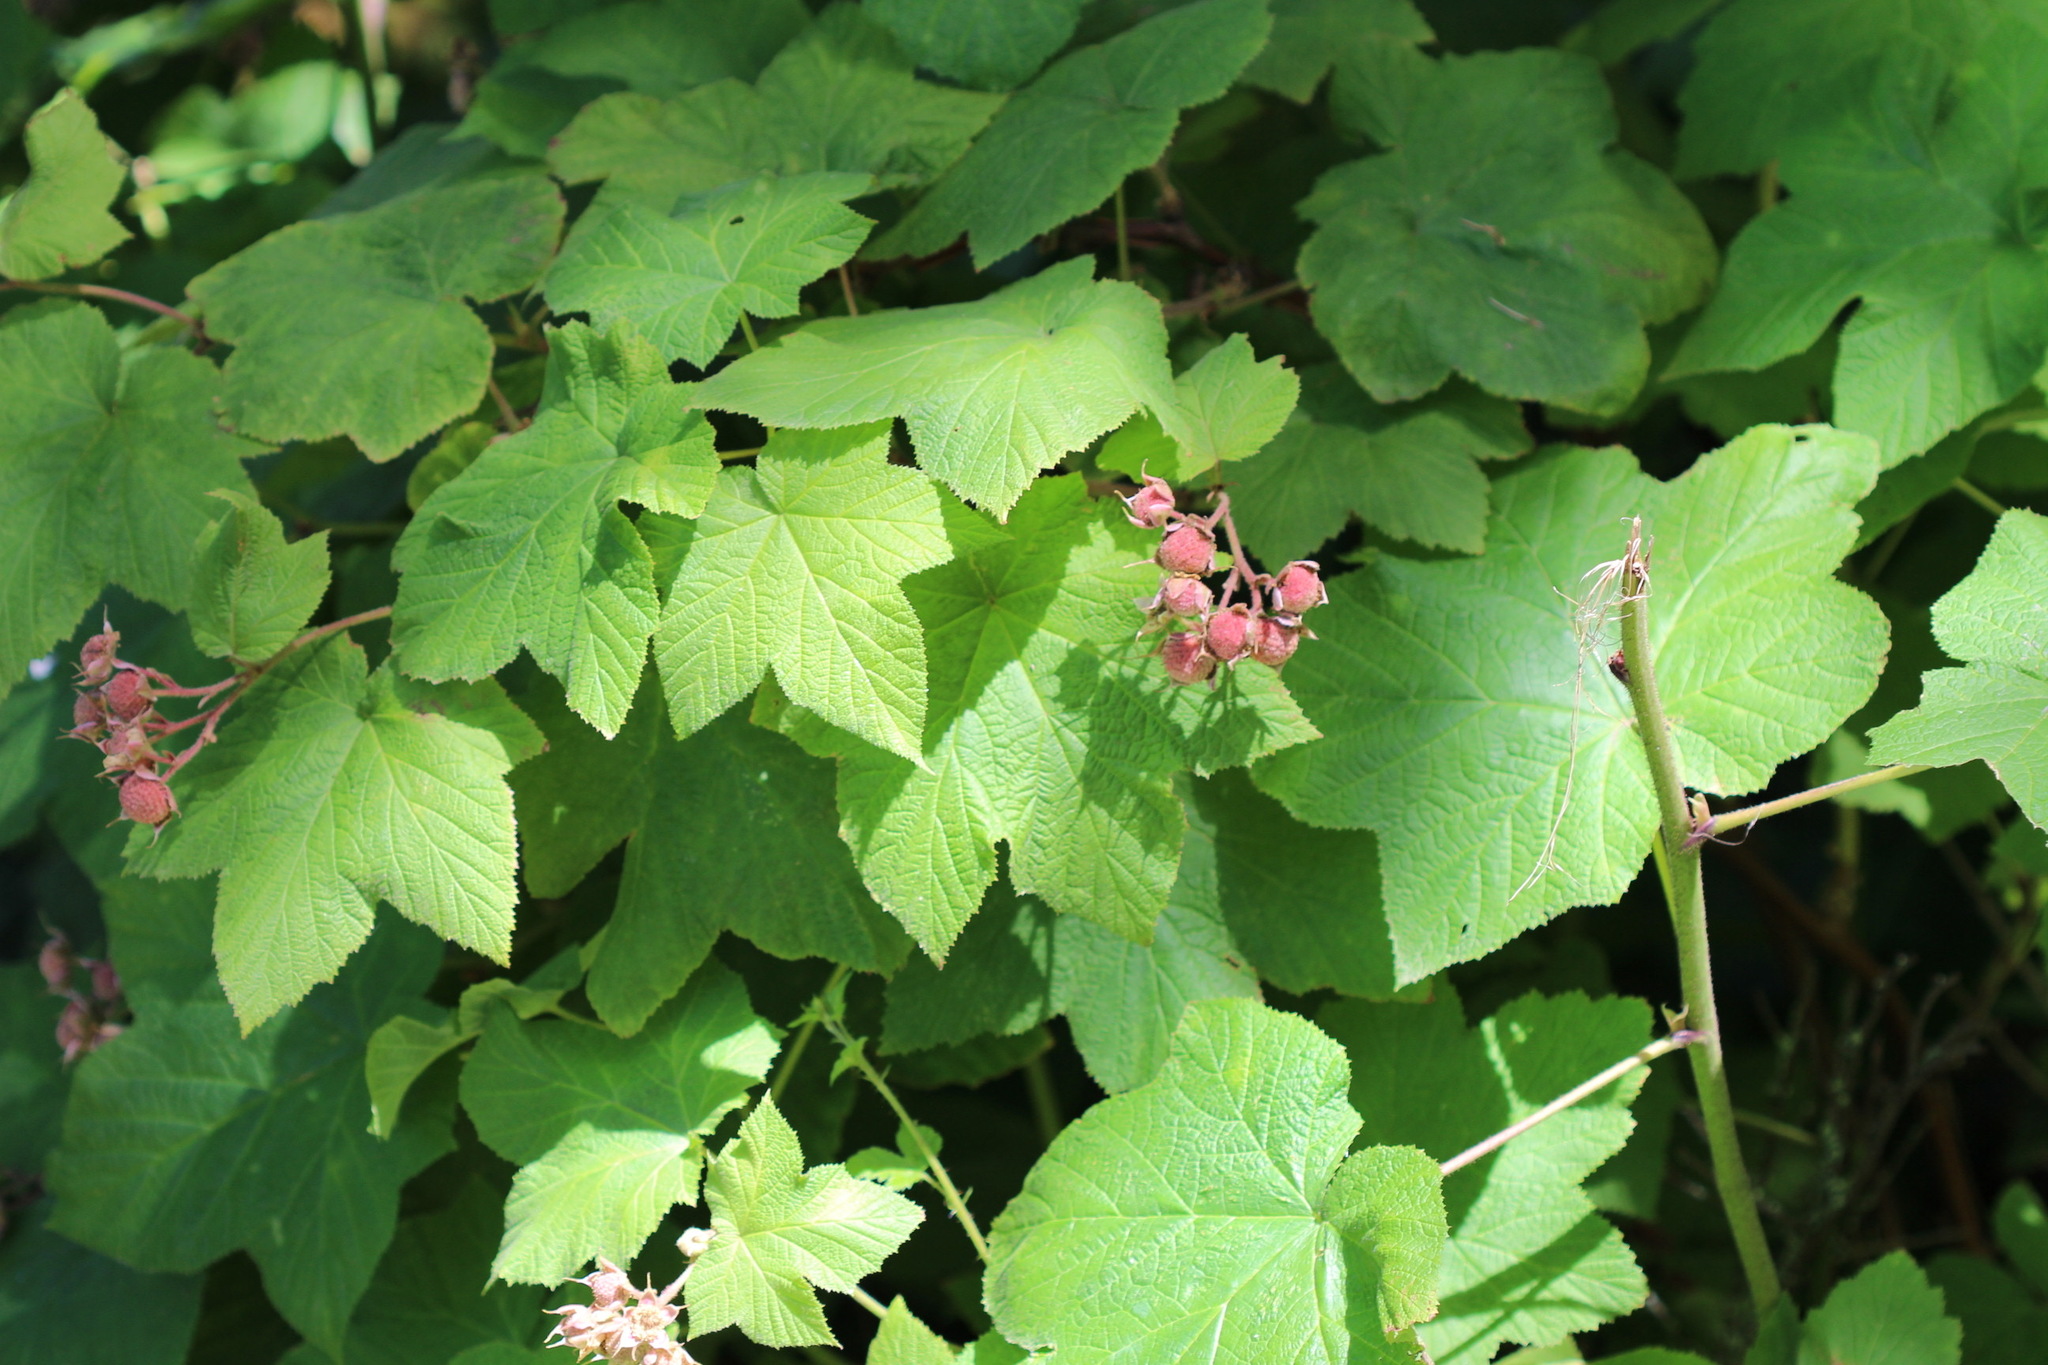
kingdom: Plantae
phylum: Tracheophyta
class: Magnoliopsida
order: Rosales
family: Rosaceae
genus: Rubus
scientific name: Rubus parviflorus
